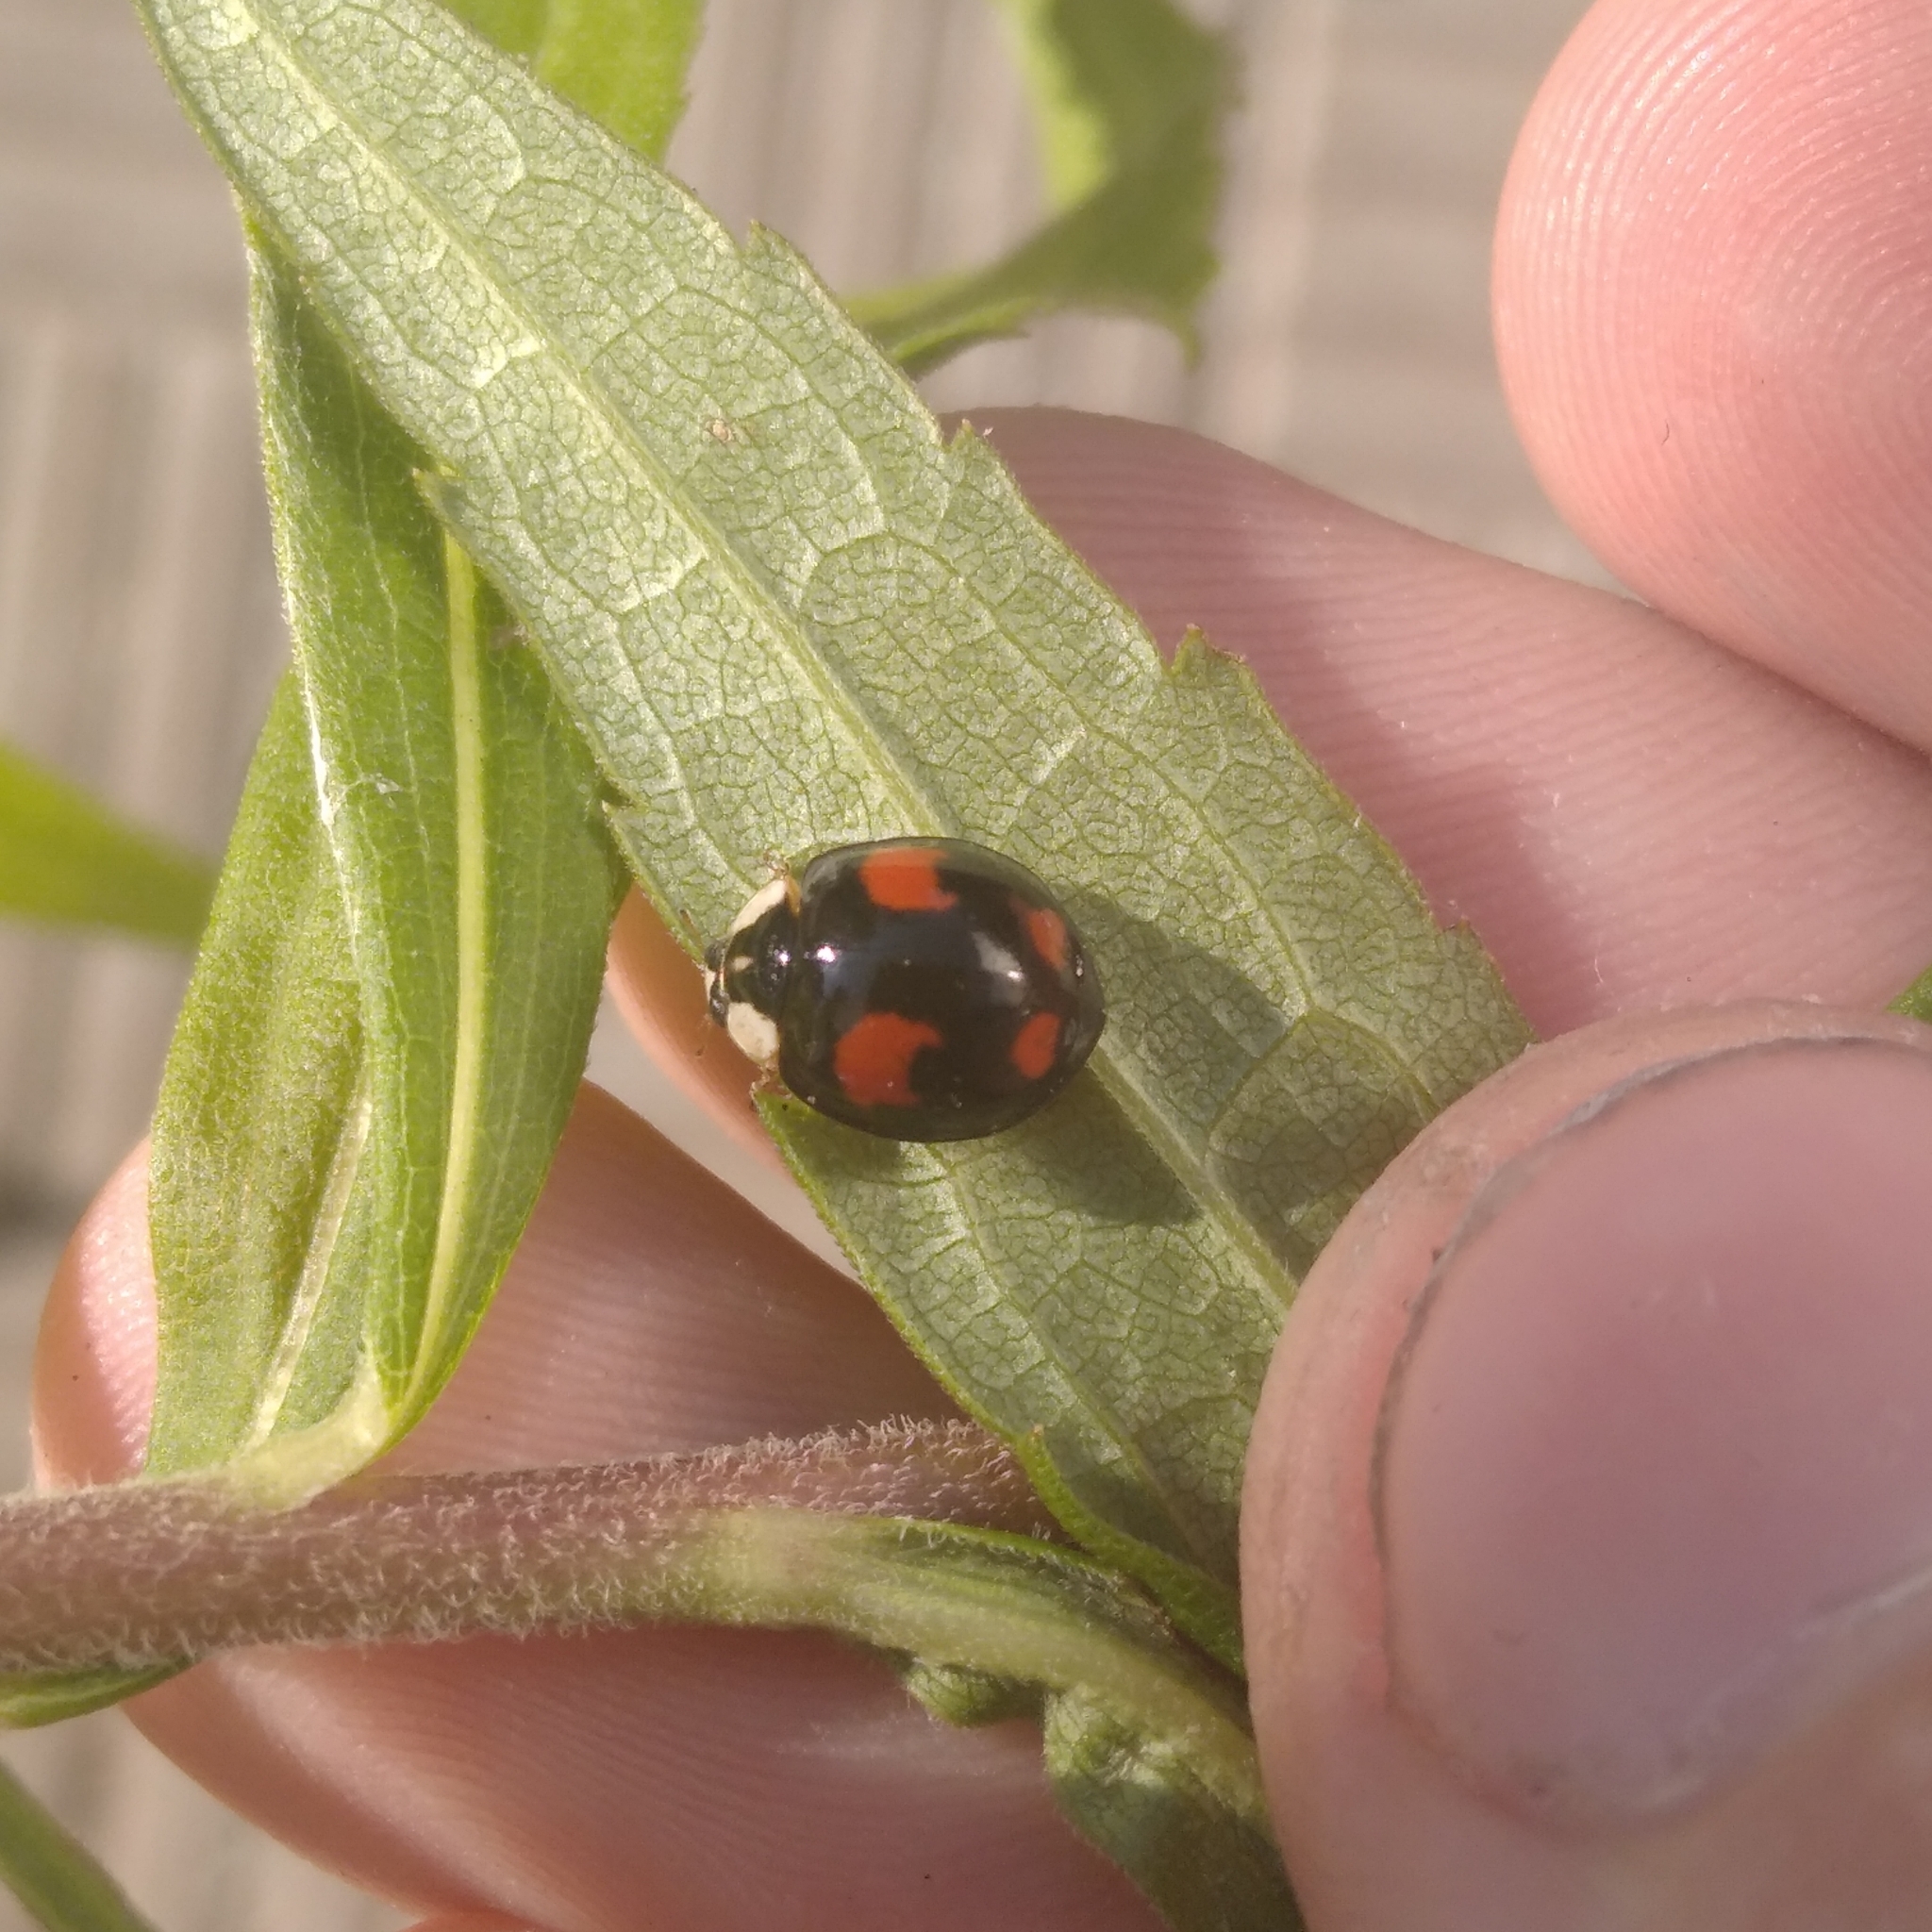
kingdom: Animalia
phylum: Arthropoda
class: Insecta
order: Coleoptera
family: Coccinellidae
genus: Harmonia
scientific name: Harmonia axyridis
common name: Harlequin ladybird
